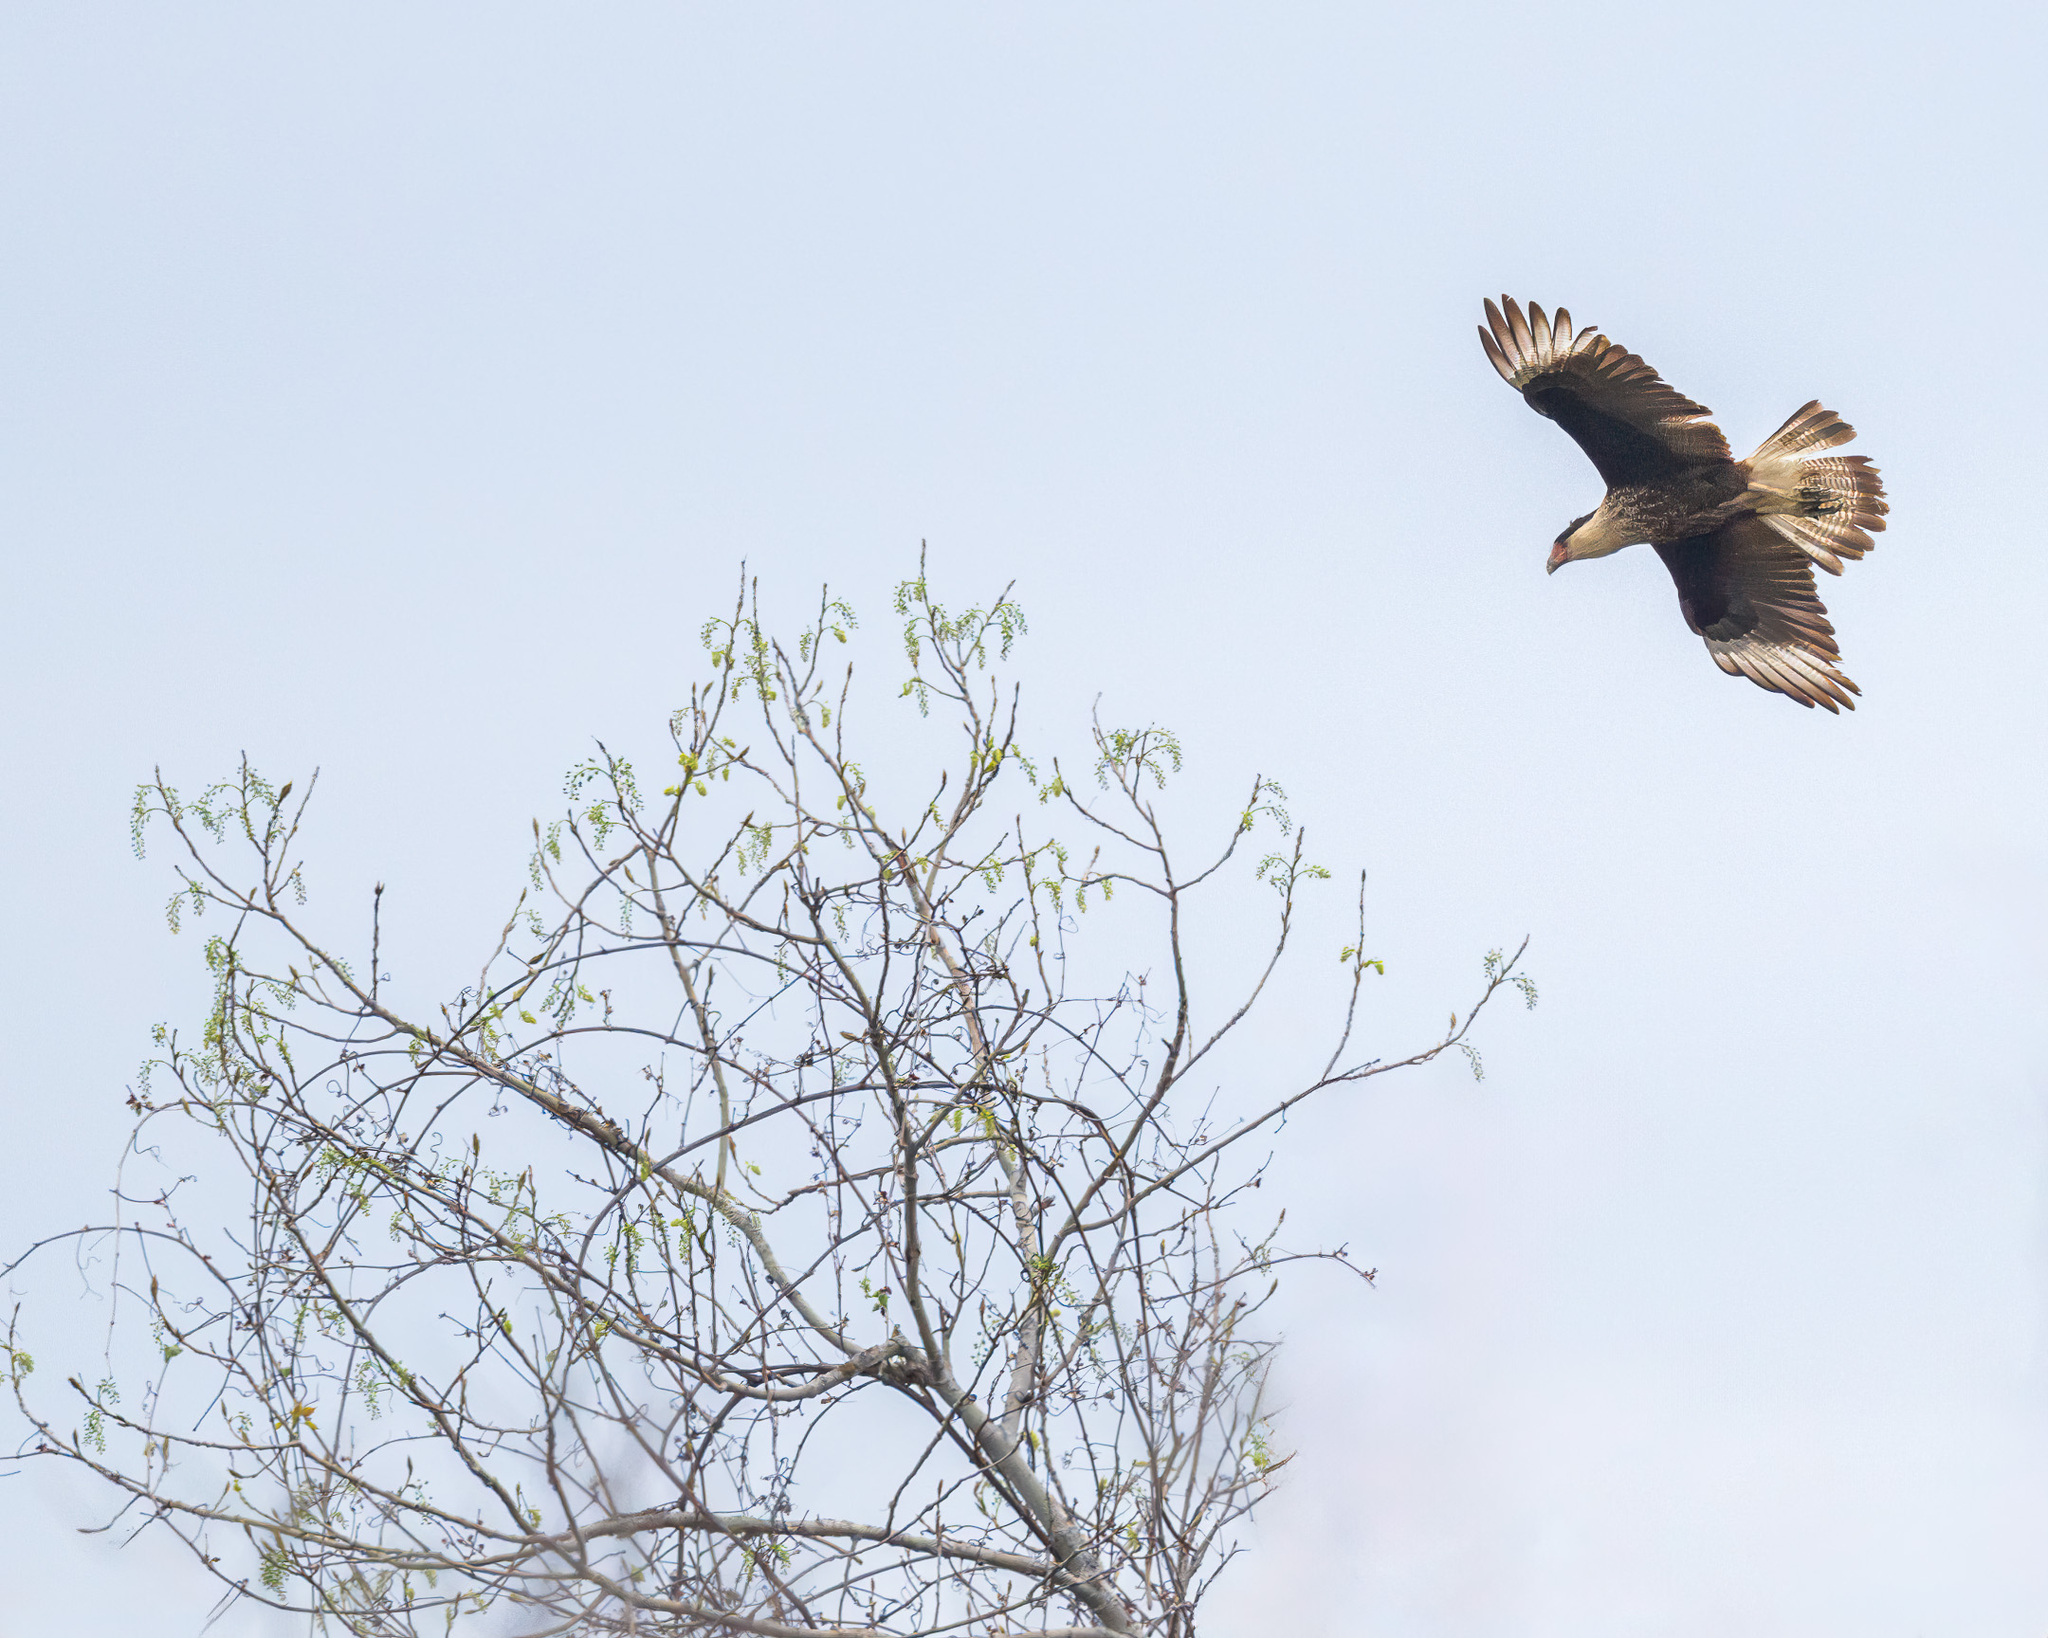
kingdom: Animalia
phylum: Chordata
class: Aves
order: Falconiformes
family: Falconidae
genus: Caracara
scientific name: Caracara plancus
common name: Southern caracara
